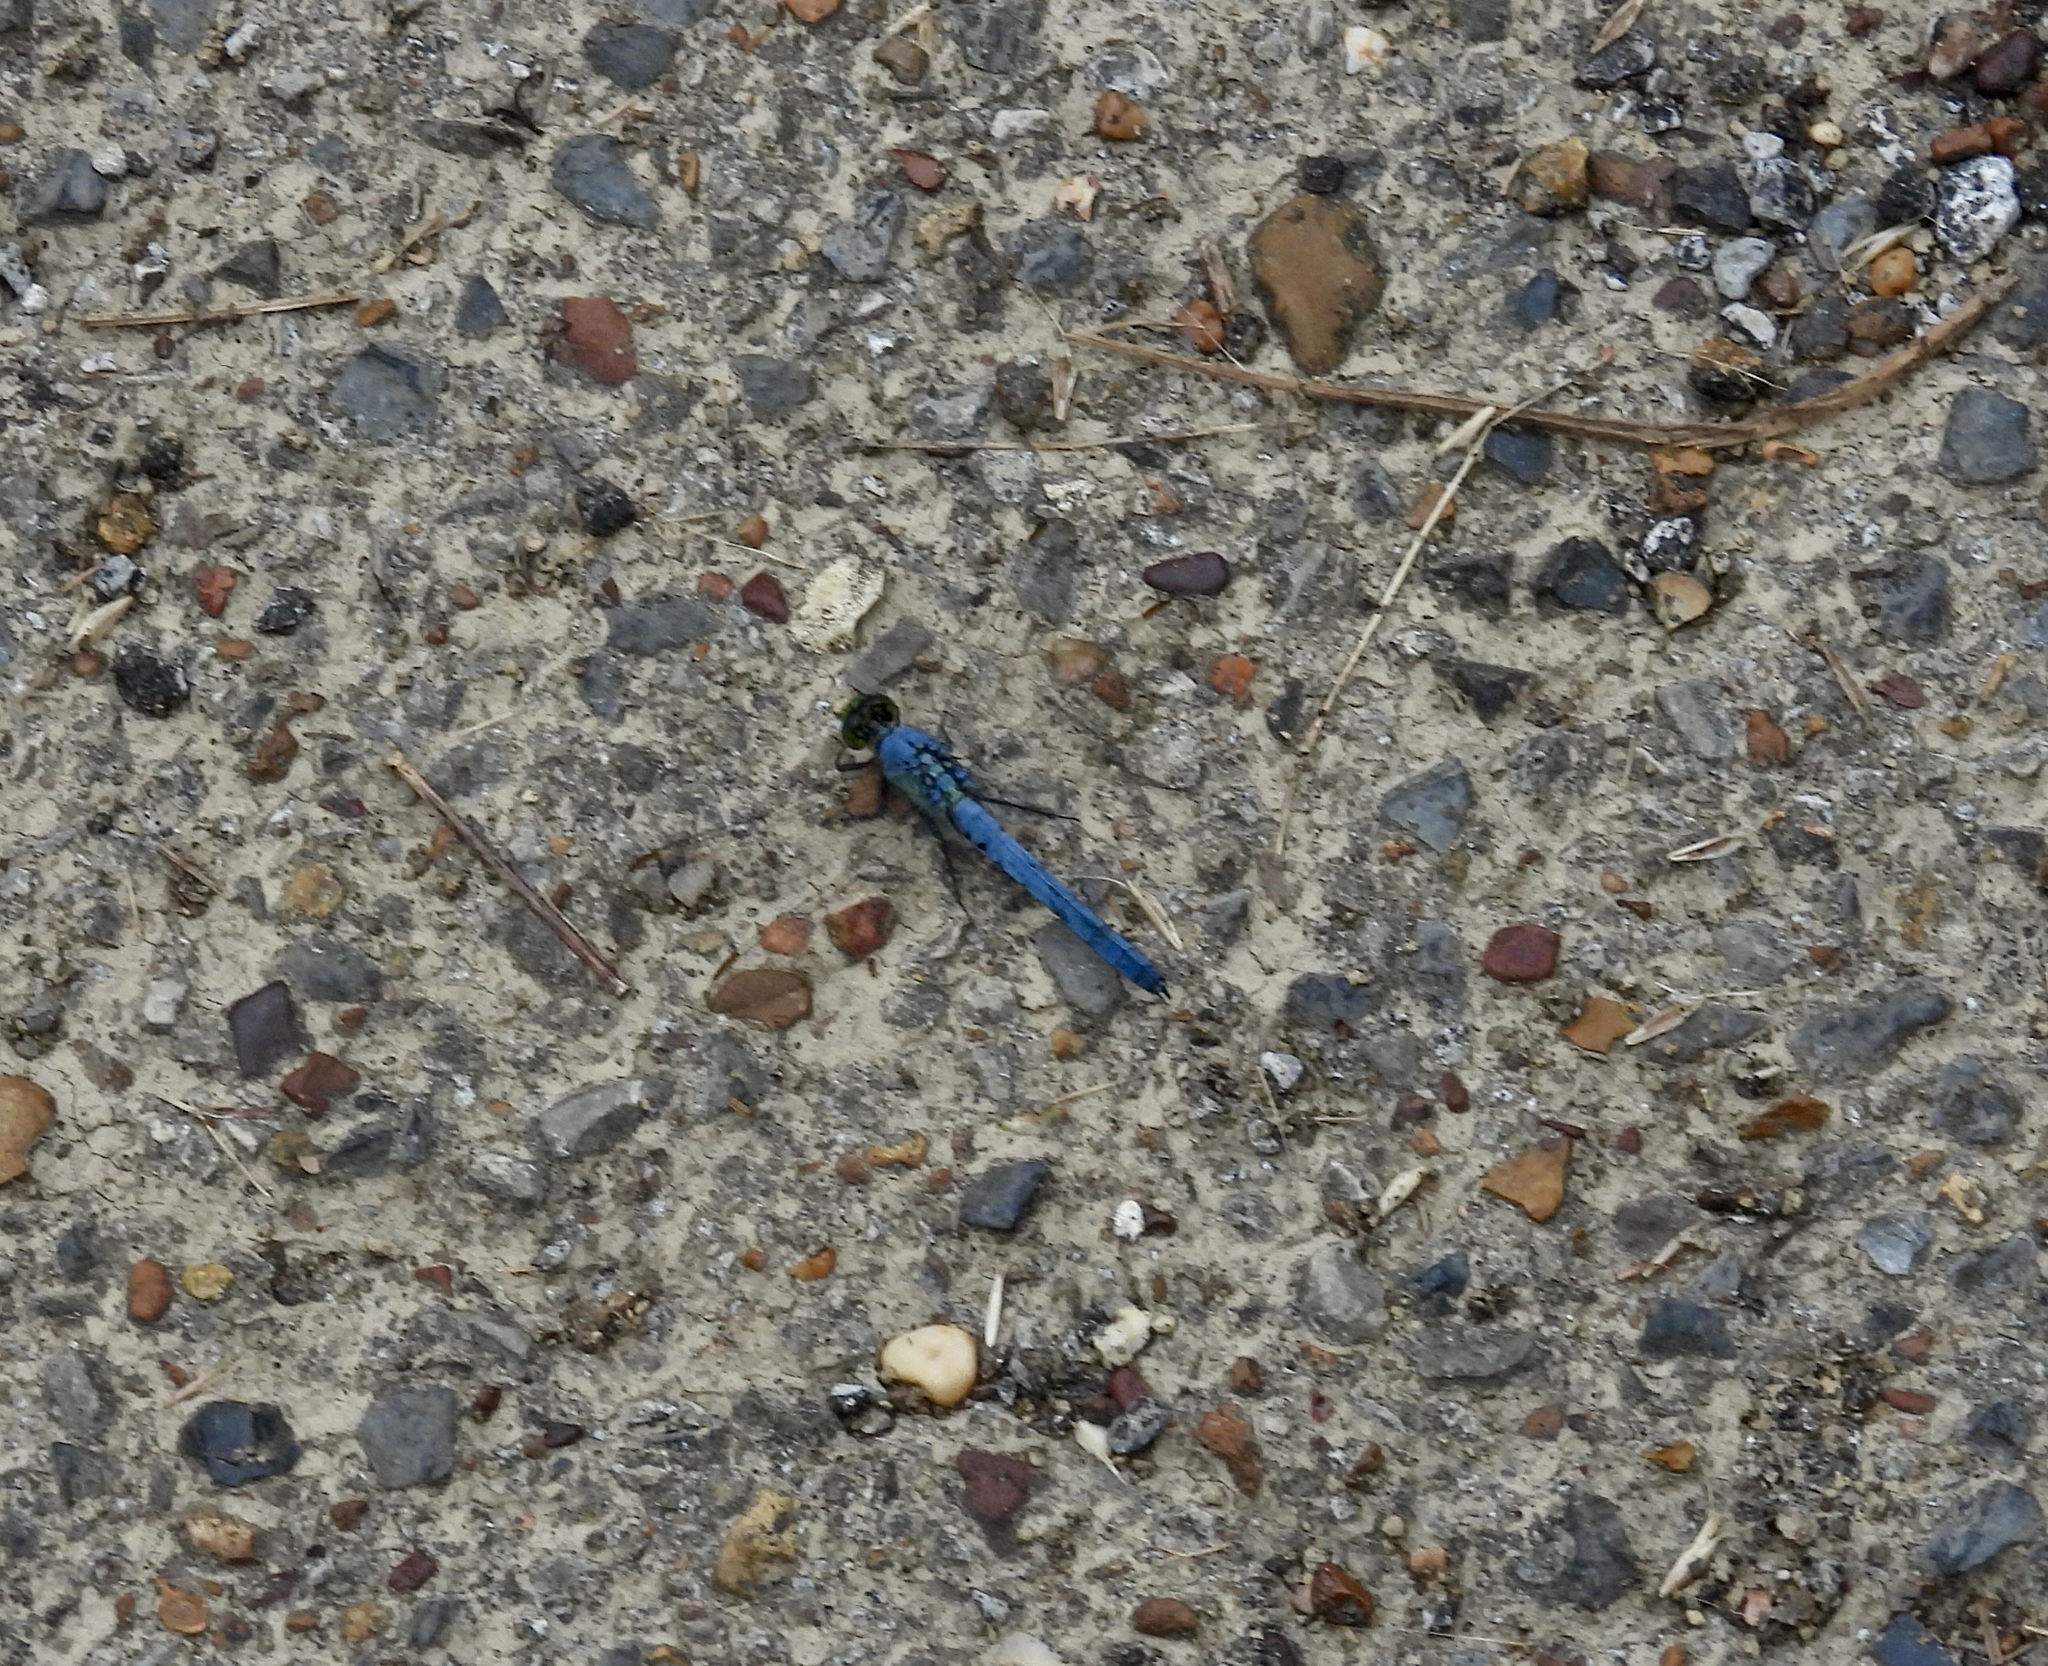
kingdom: Animalia
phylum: Arthropoda
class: Insecta
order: Odonata
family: Libellulidae
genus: Erythemis
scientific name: Erythemis simplicicollis
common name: Eastern pondhawk
